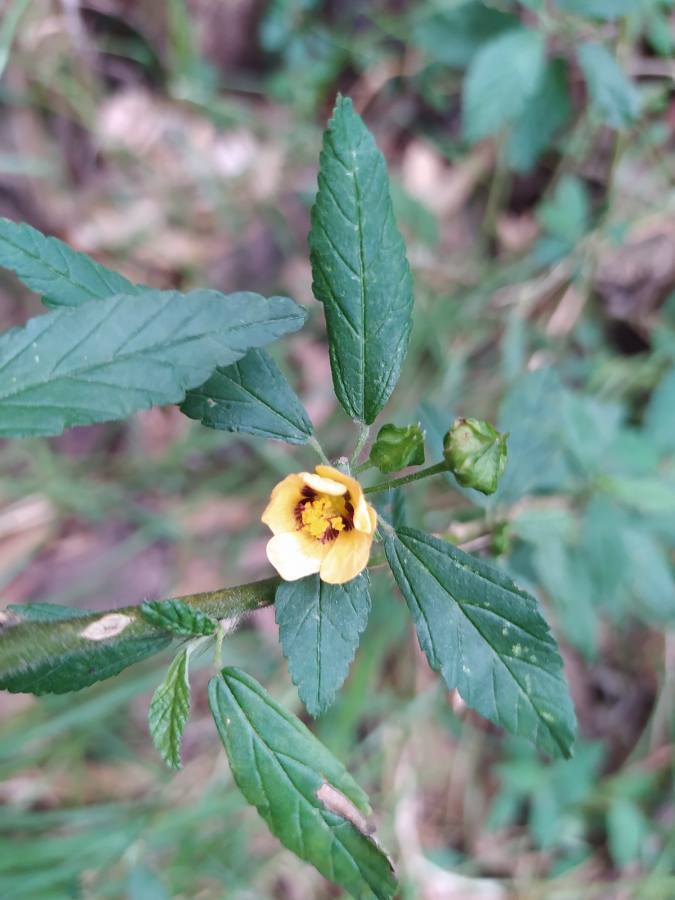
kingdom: Plantae
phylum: Tracheophyta
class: Magnoliopsida
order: Malvales
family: Malvaceae
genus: Sida
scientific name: Sida poeppigiana
